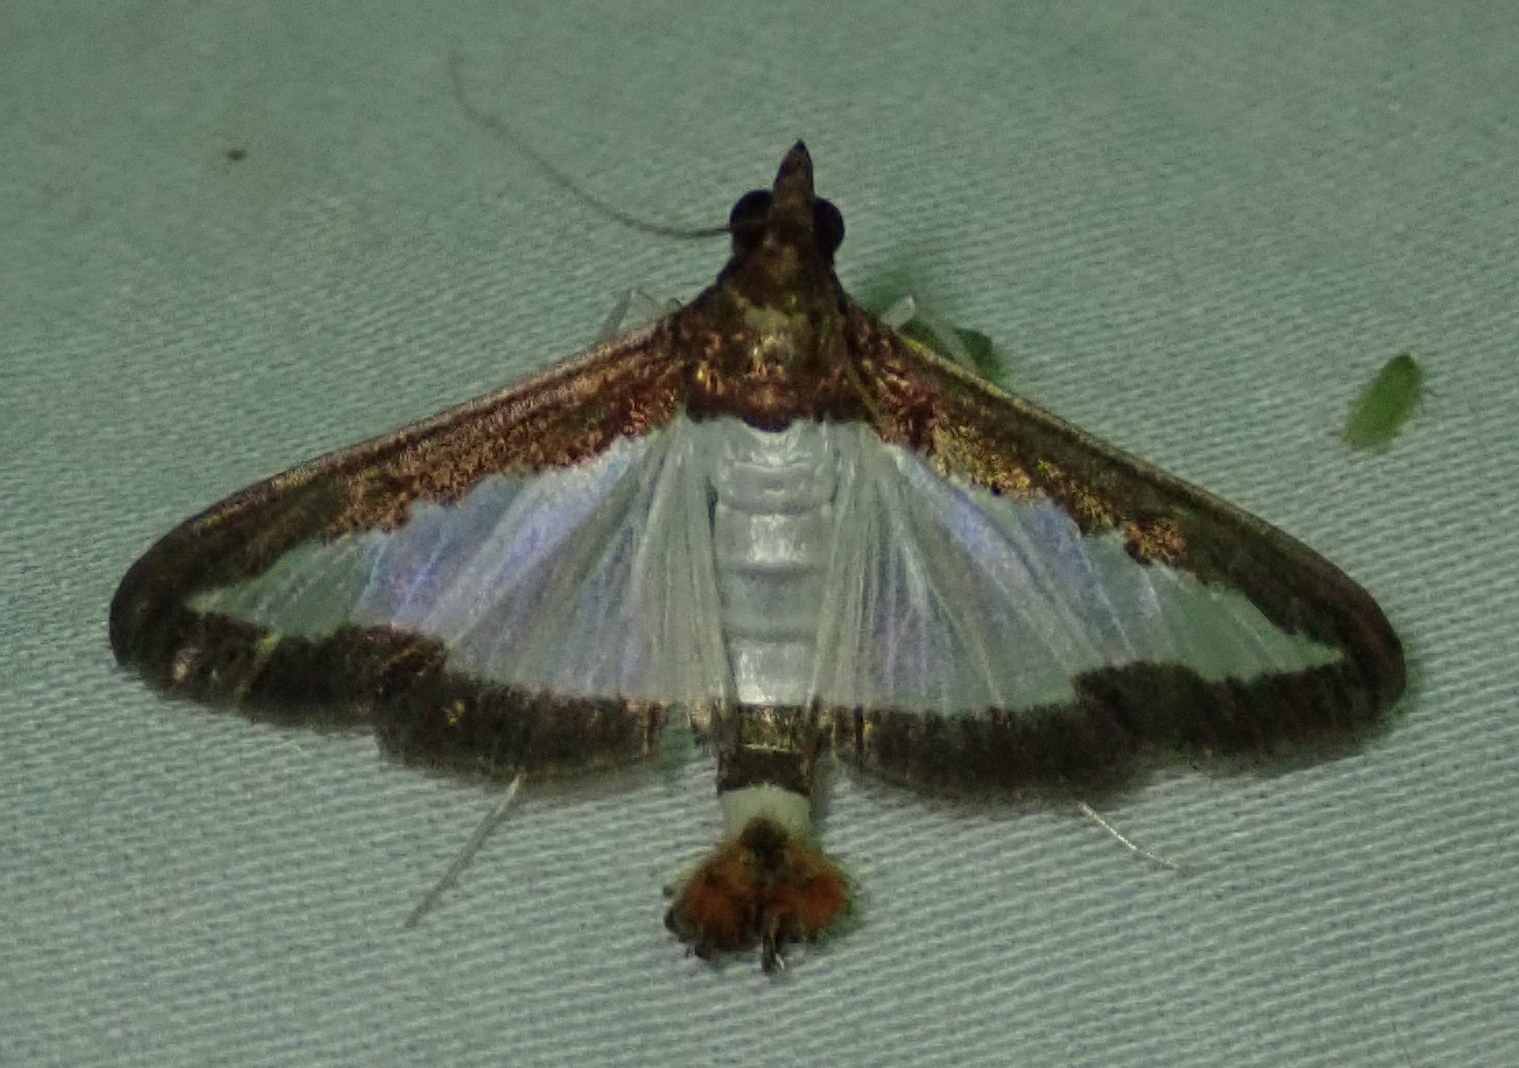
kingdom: Animalia
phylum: Arthropoda
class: Insecta
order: Lepidoptera
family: Crambidae
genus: Diaphania
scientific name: Diaphania indica
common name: Cucumber moth
